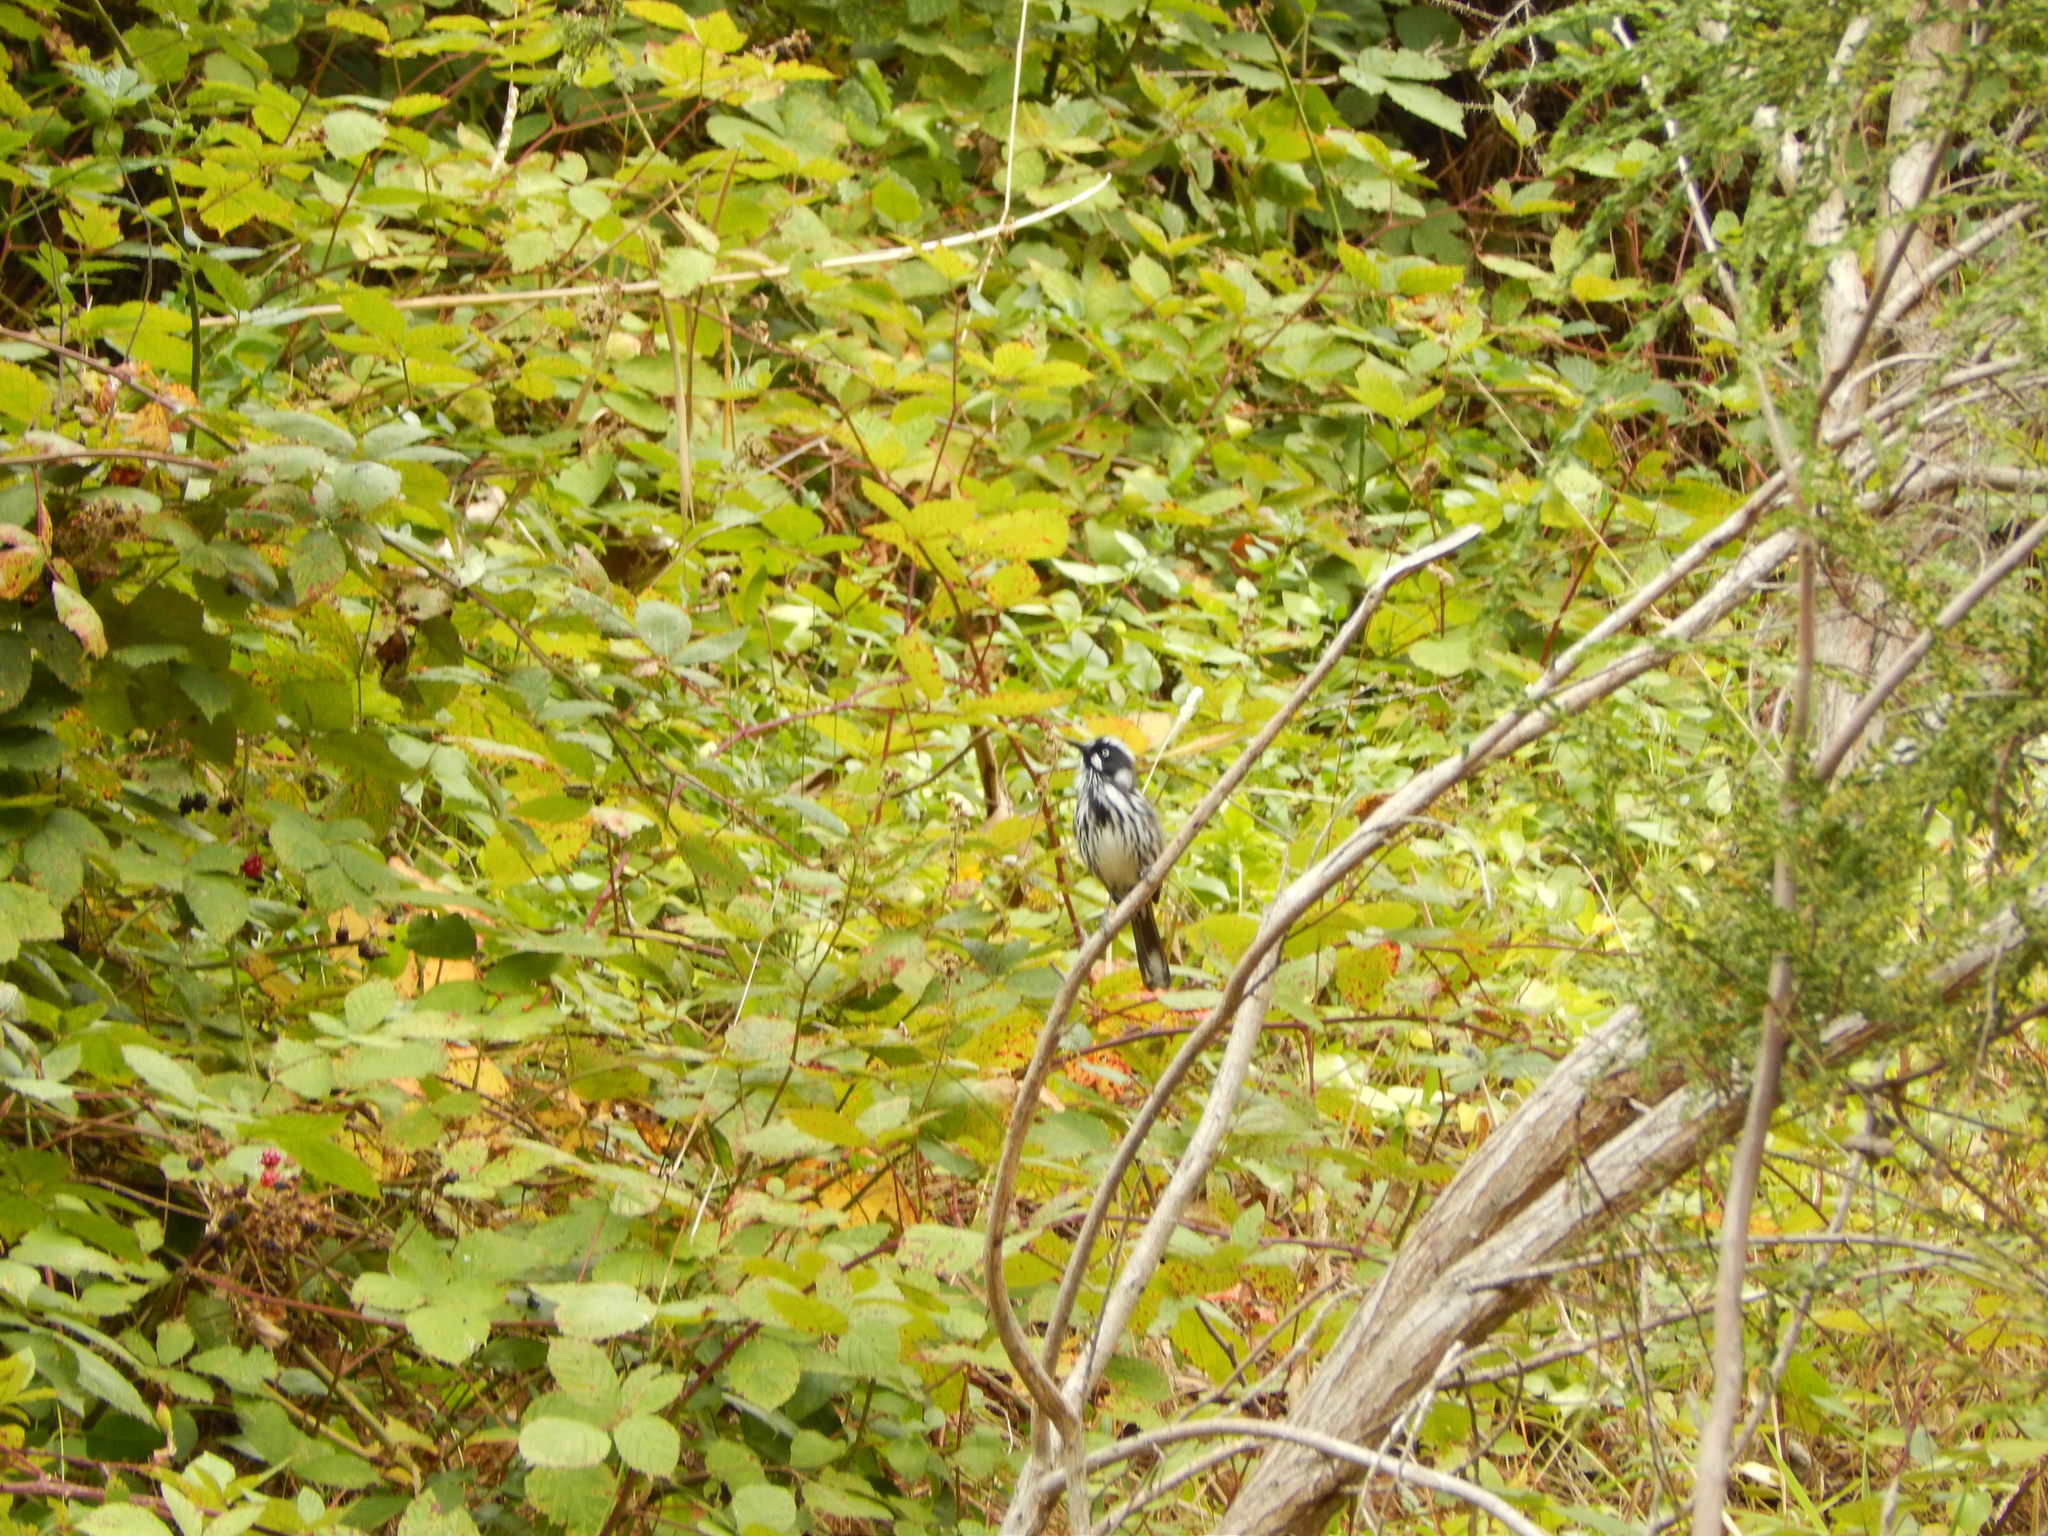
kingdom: Animalia
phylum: Chordata
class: Aves
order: Passeriformes
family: Meliphagidae
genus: Phylidonyris
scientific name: Phylidonyris novaehollandiae
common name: New holland honeyeater
